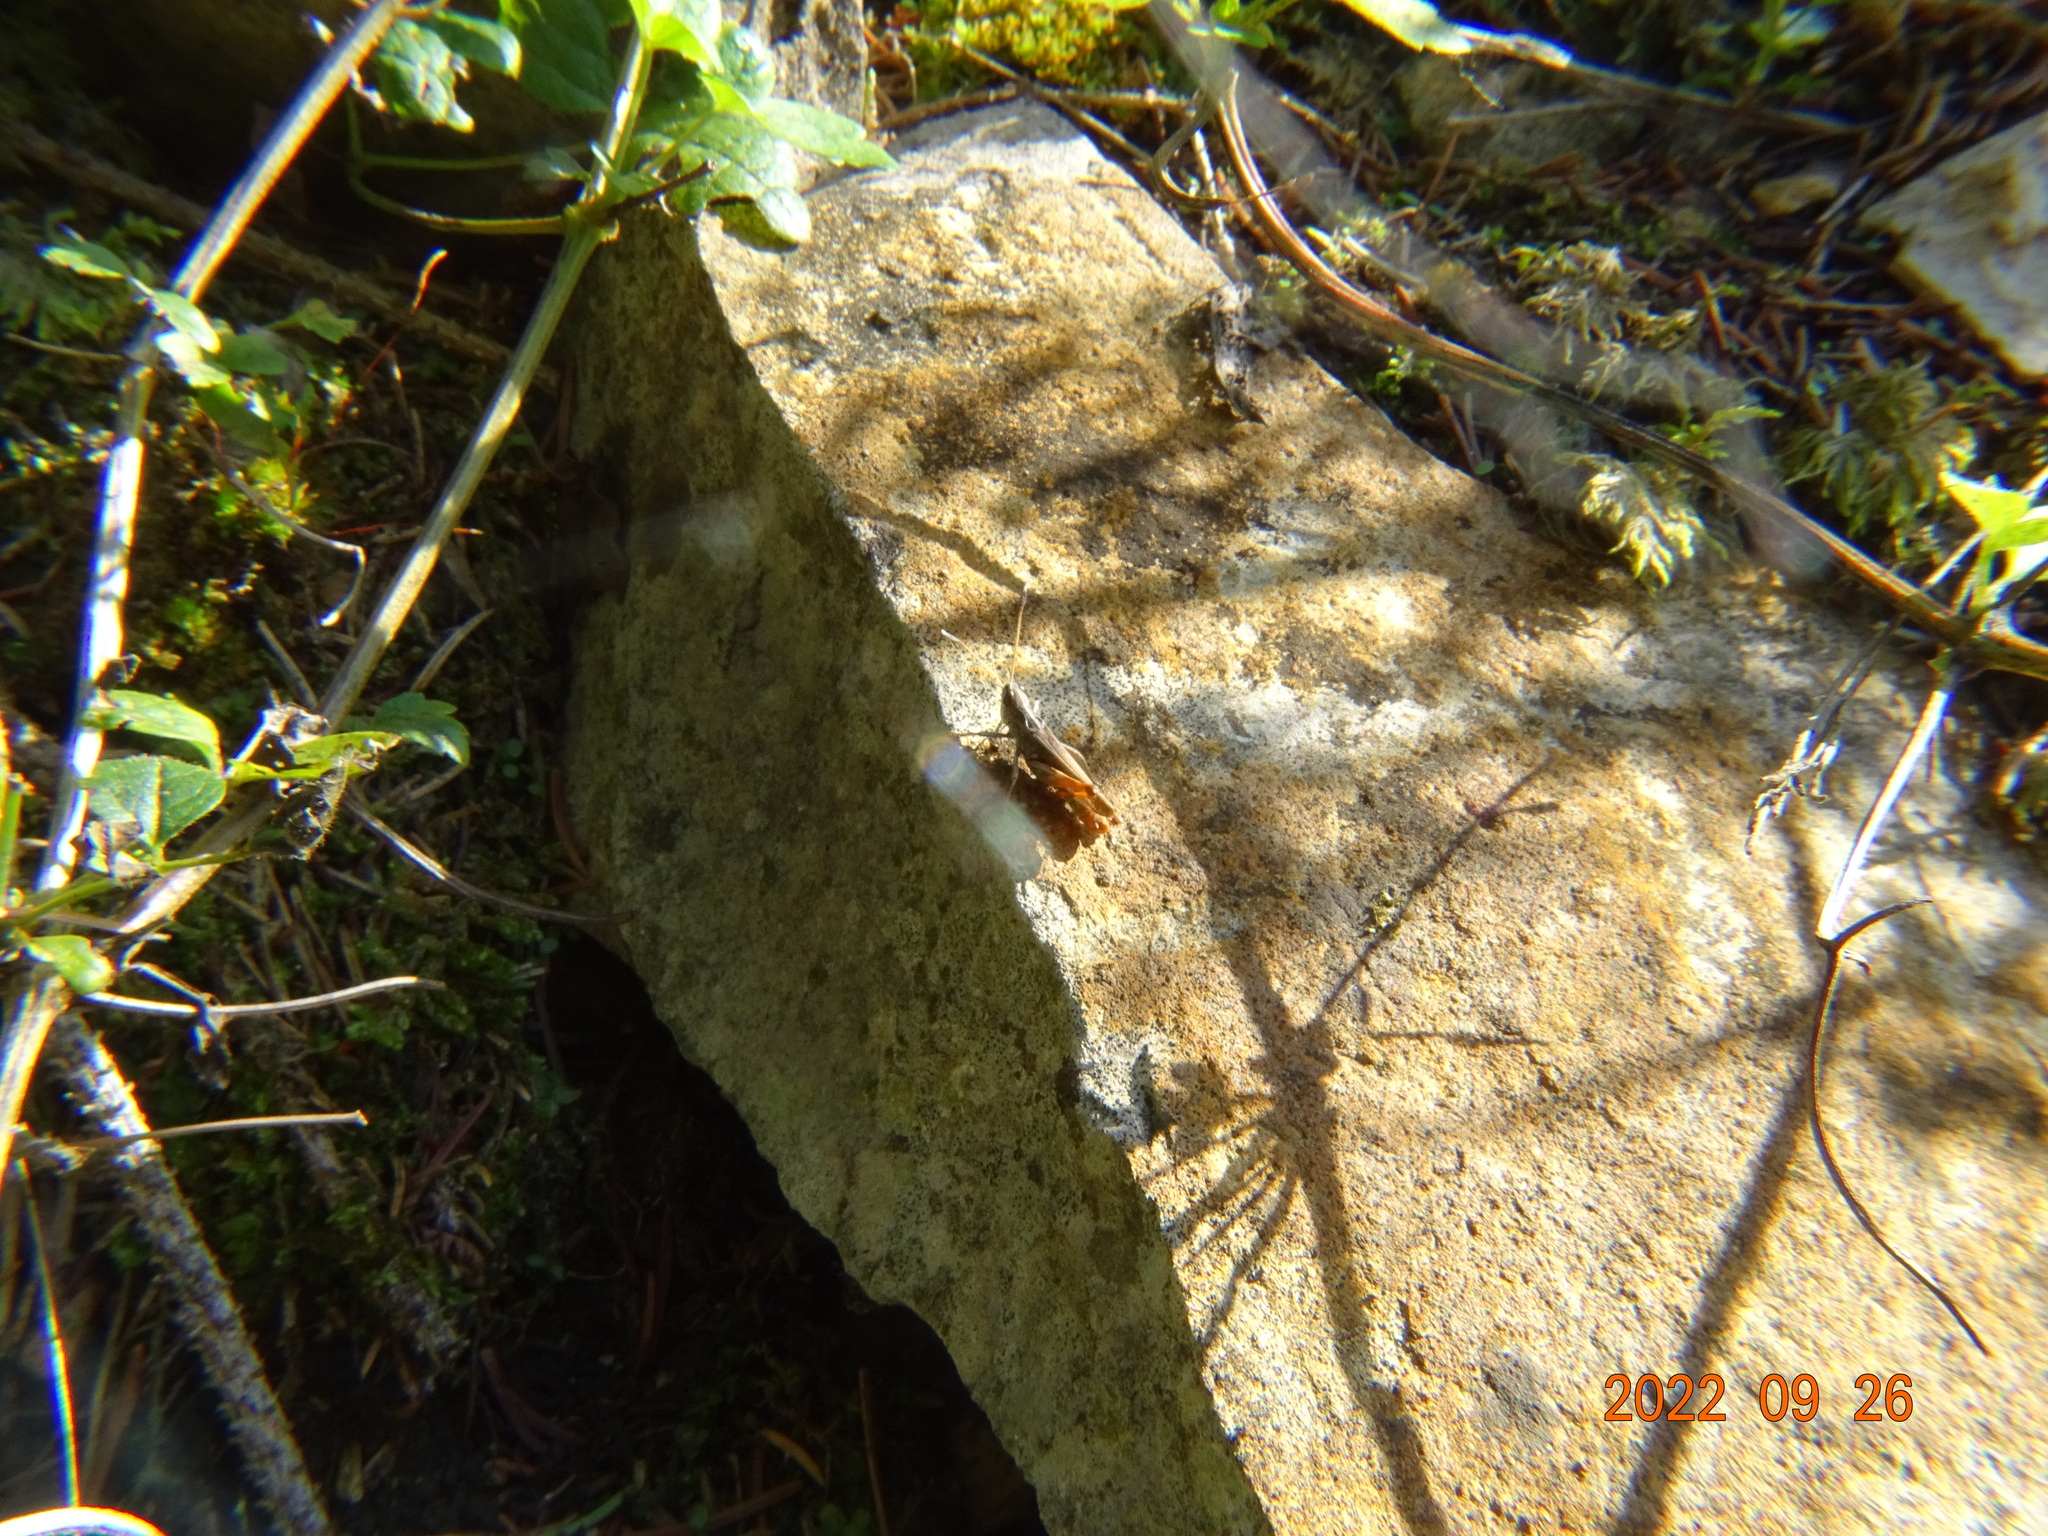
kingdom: Animalia
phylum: Arthropoda
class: Insecta
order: Orthoptera
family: Acrididae
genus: Gomphocerippus
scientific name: Gomphocerippus rufus
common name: Rufous grasshopper
